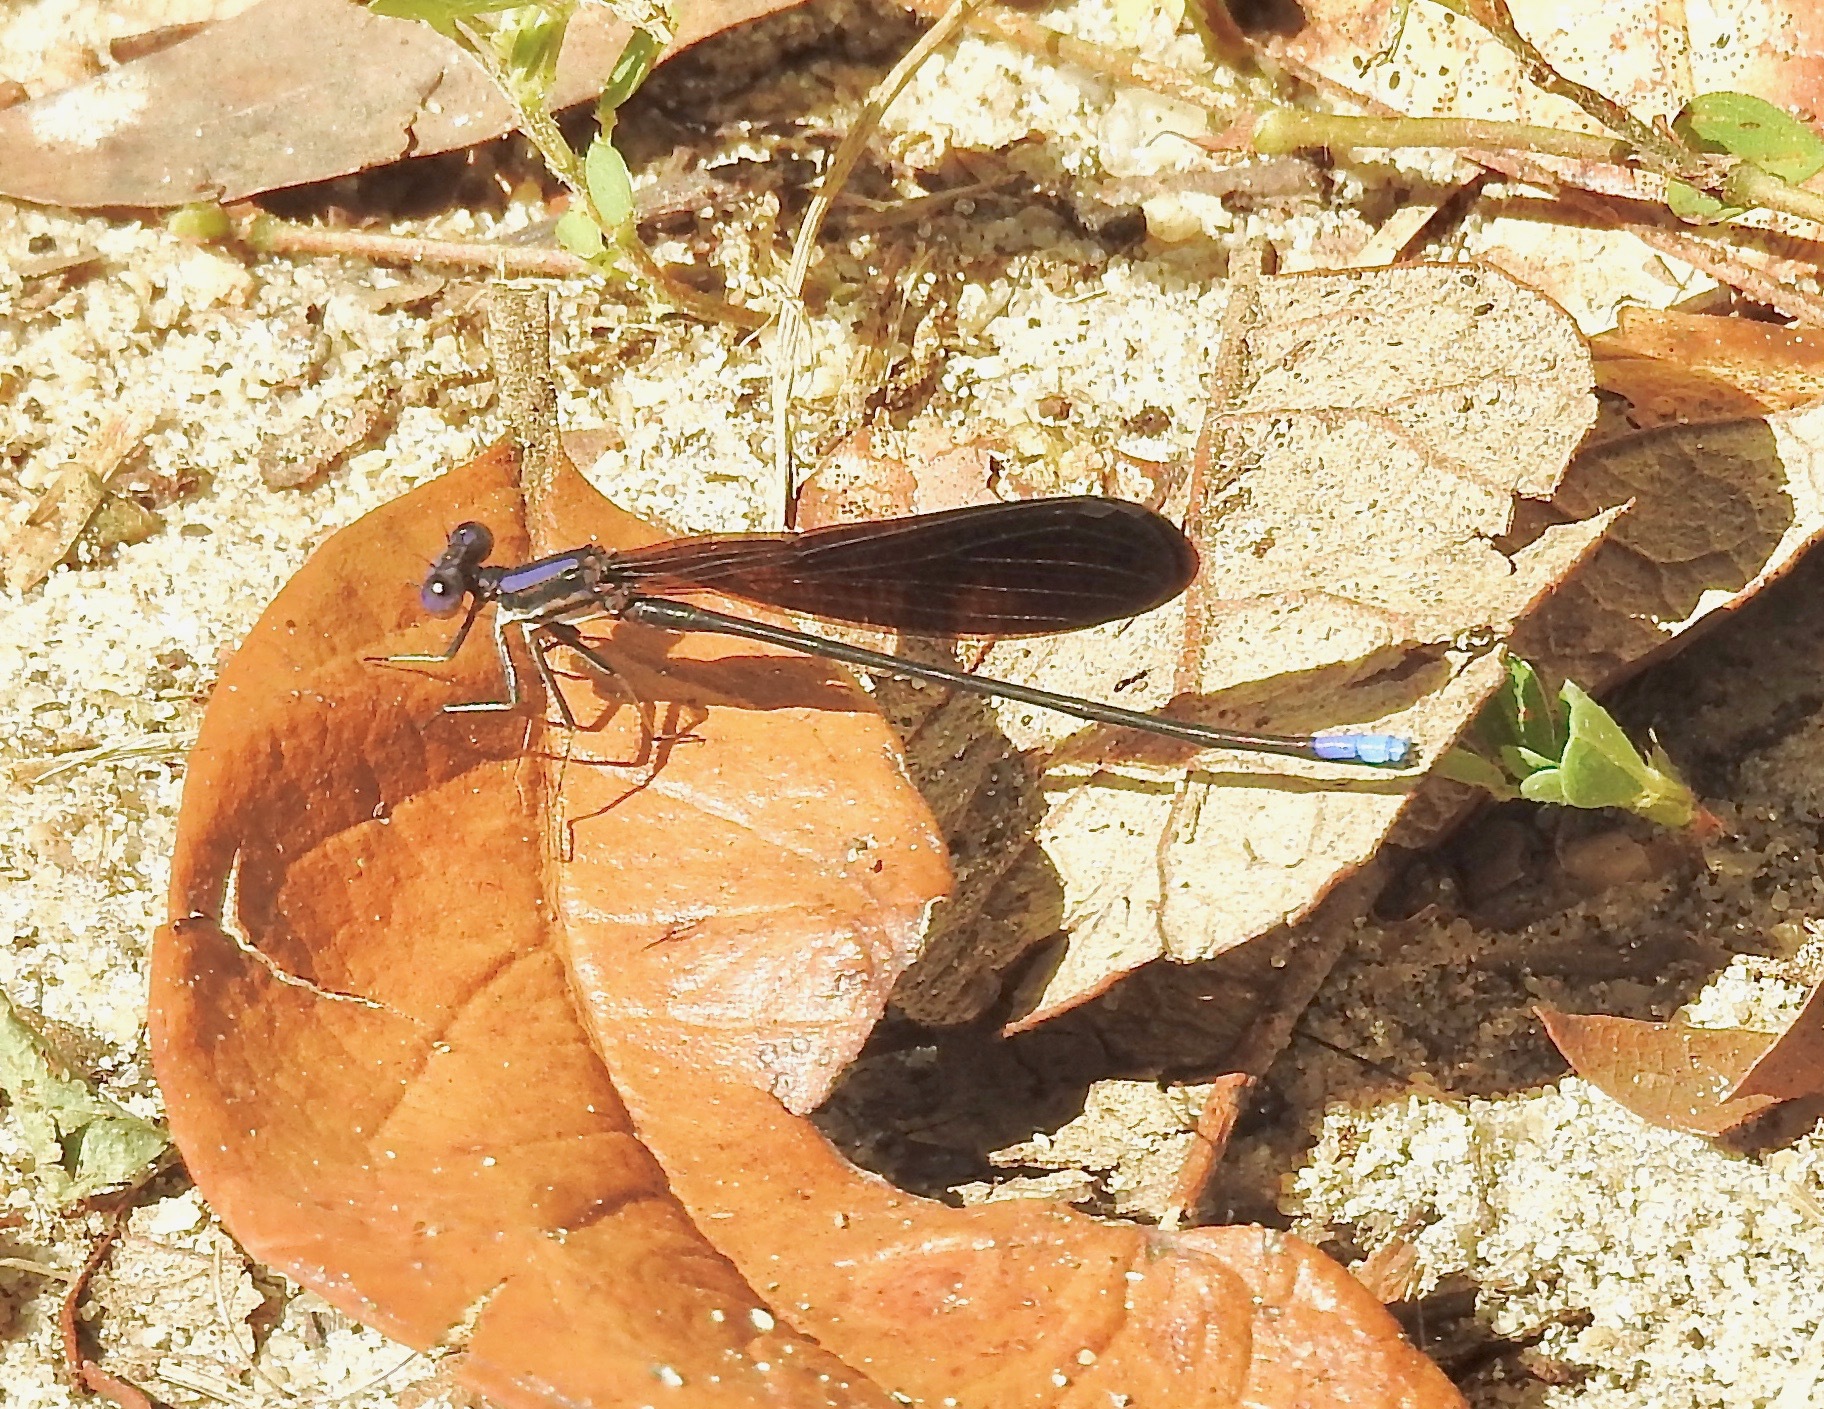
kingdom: Animalia
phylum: Arthropoda
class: Insecta
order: Odonata
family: Coenagrionidae
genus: Argia
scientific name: Argia fumipennis
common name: Variable dancer
